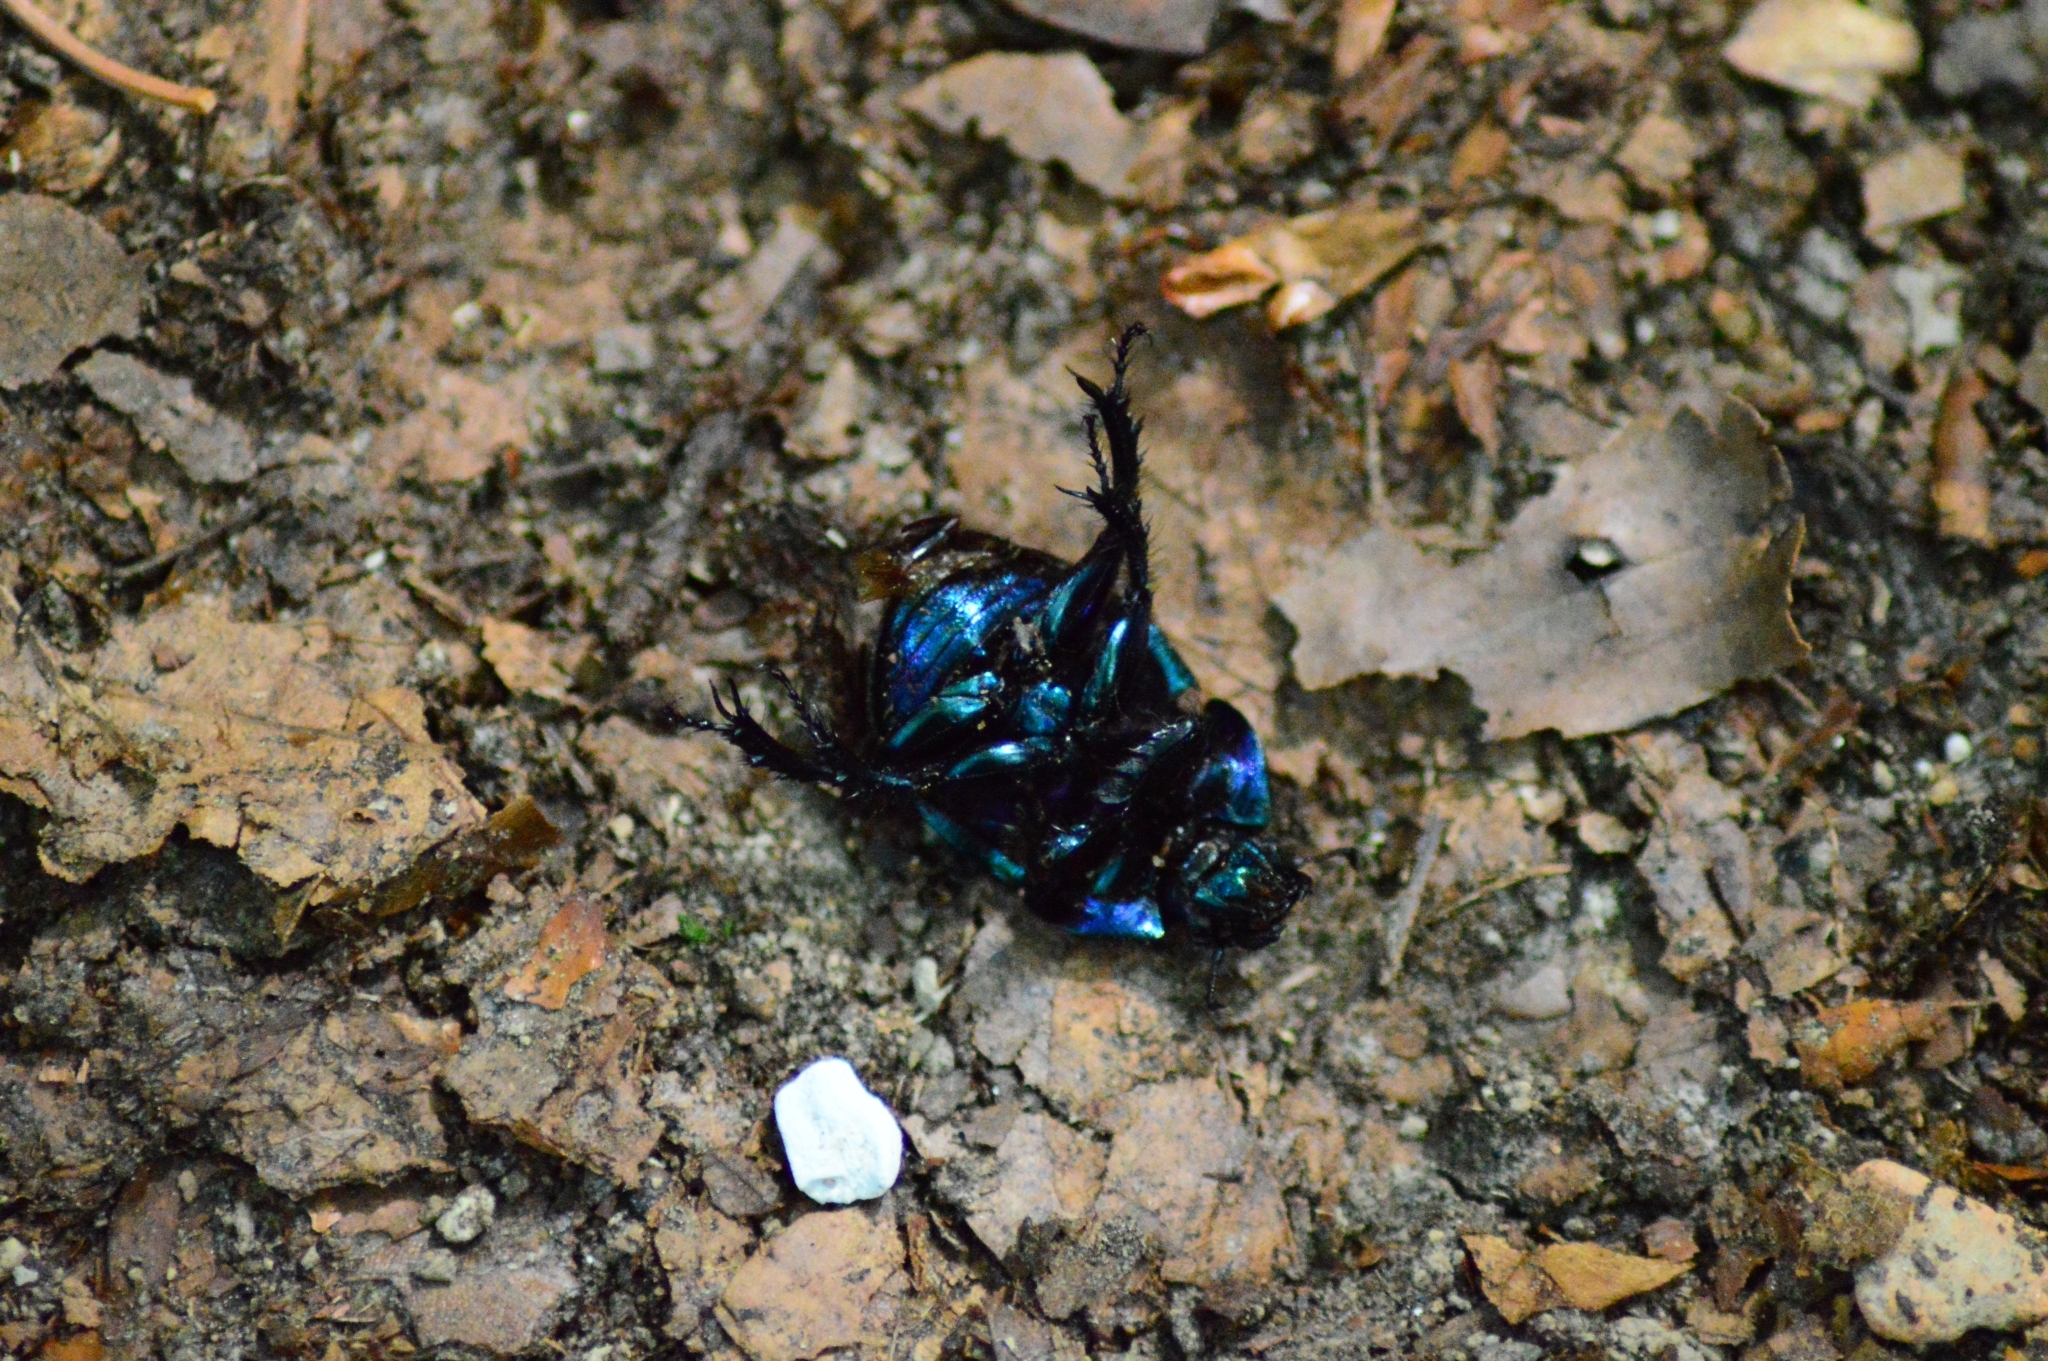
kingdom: Animalia
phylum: Arthropoda
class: Insecta
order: Coleoptera
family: Geotrupidae
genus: Trypocopris
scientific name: Trypocopris vernalis
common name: Spring dumbledor
